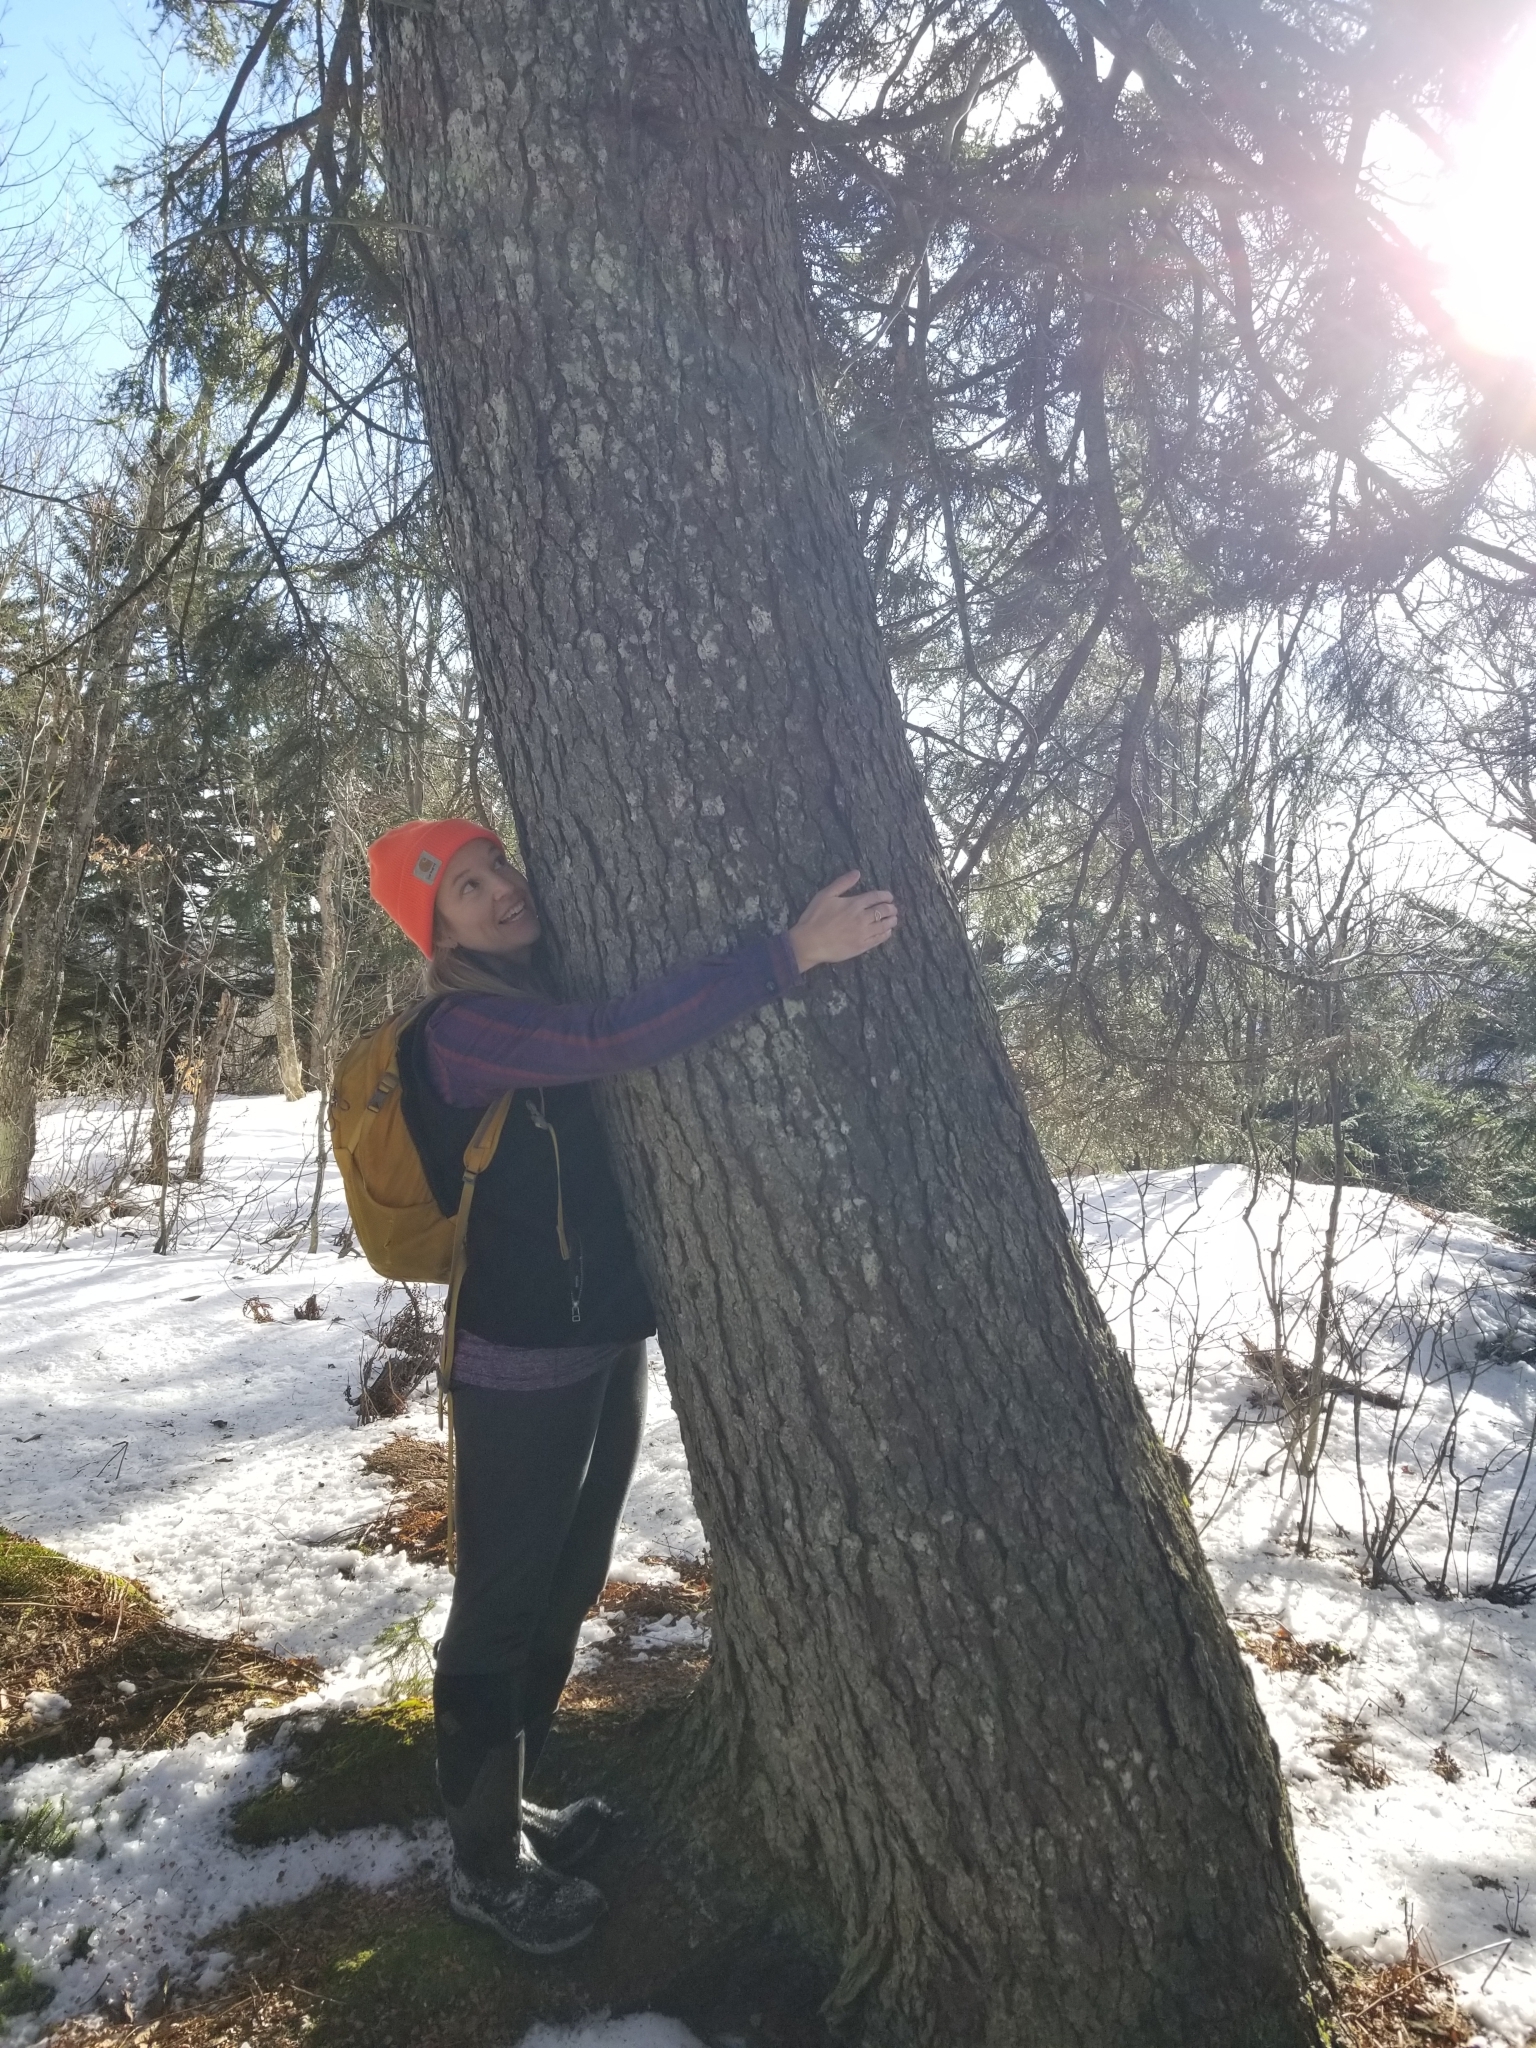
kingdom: Plantae
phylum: Tracheophyta
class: Pinopsida
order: Pinales
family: Pinaceae
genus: Picea
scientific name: Picea rubens
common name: Red spruce
